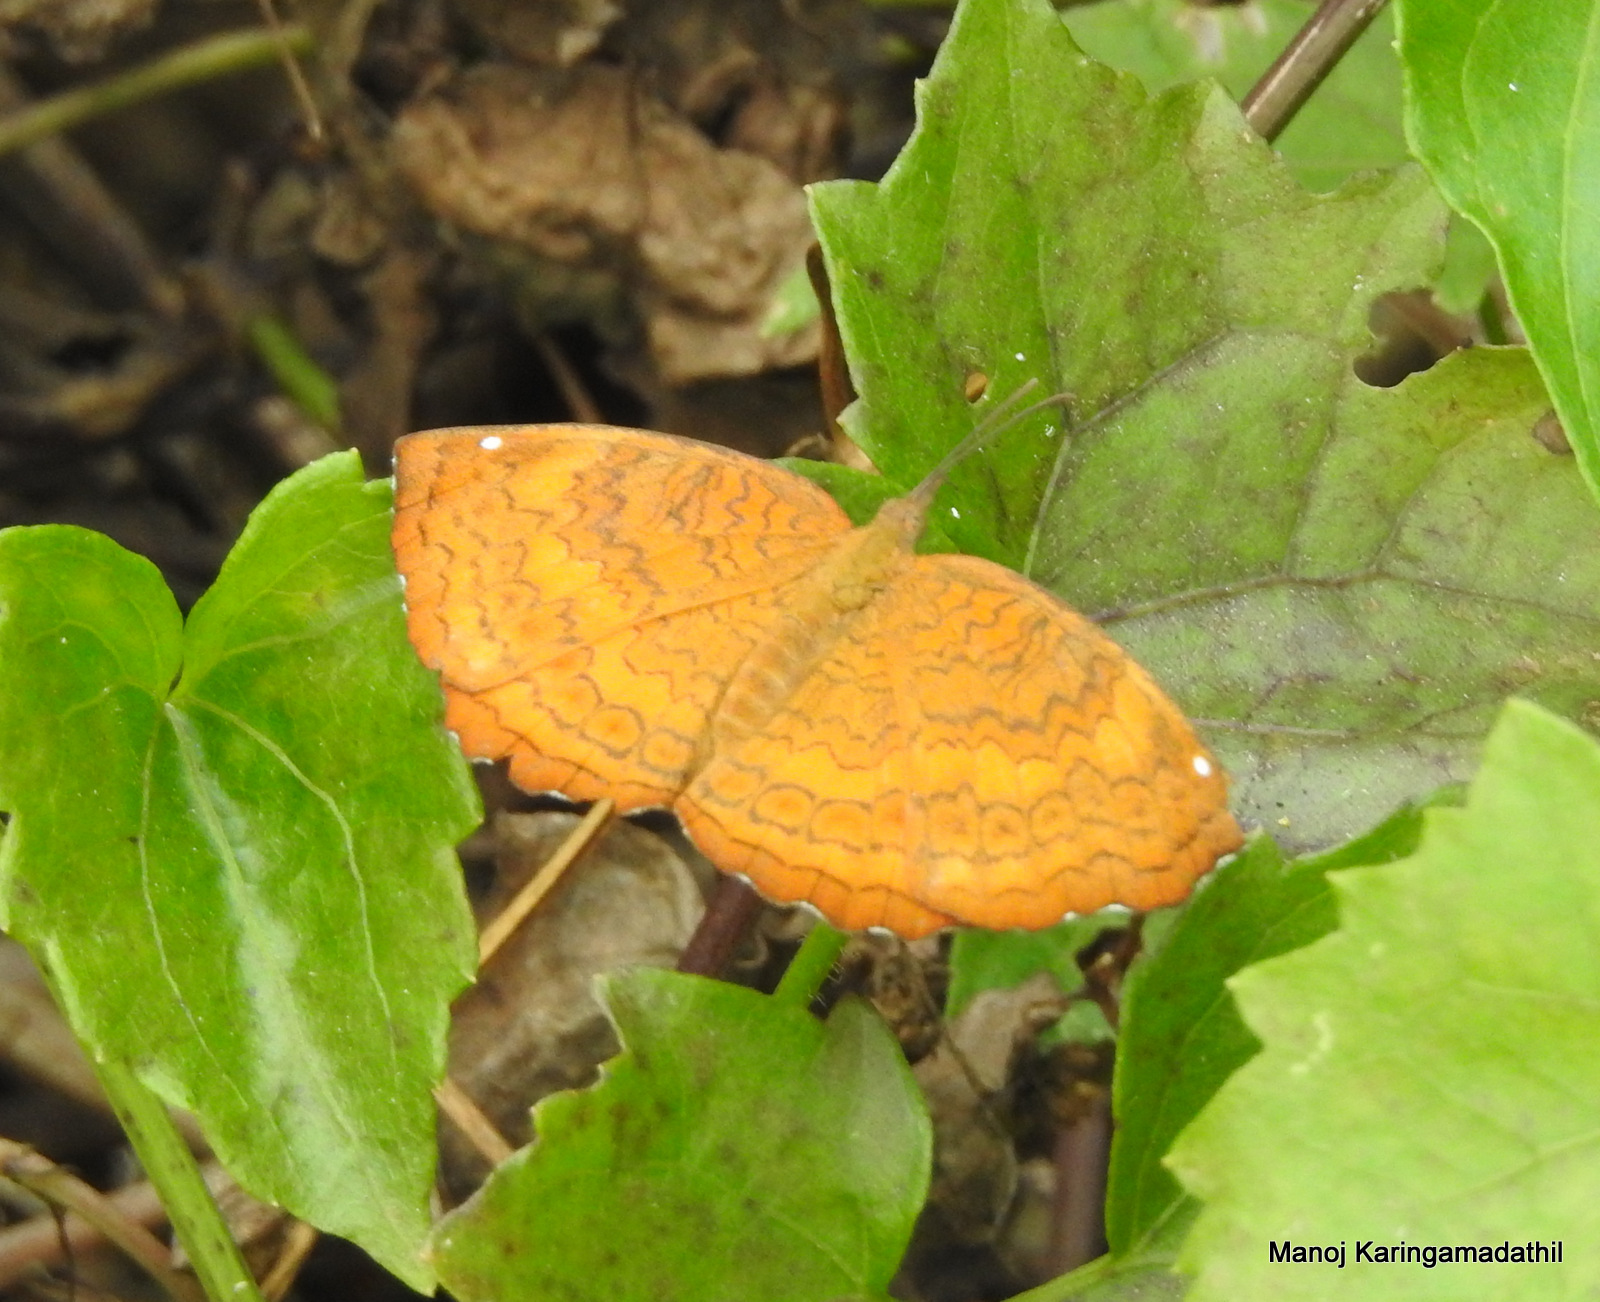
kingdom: Animalia
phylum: Arthropoda
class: Insecta
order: Lepidoptera
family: Nymphalidae
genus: Ariadne
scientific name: Ariadne merione
